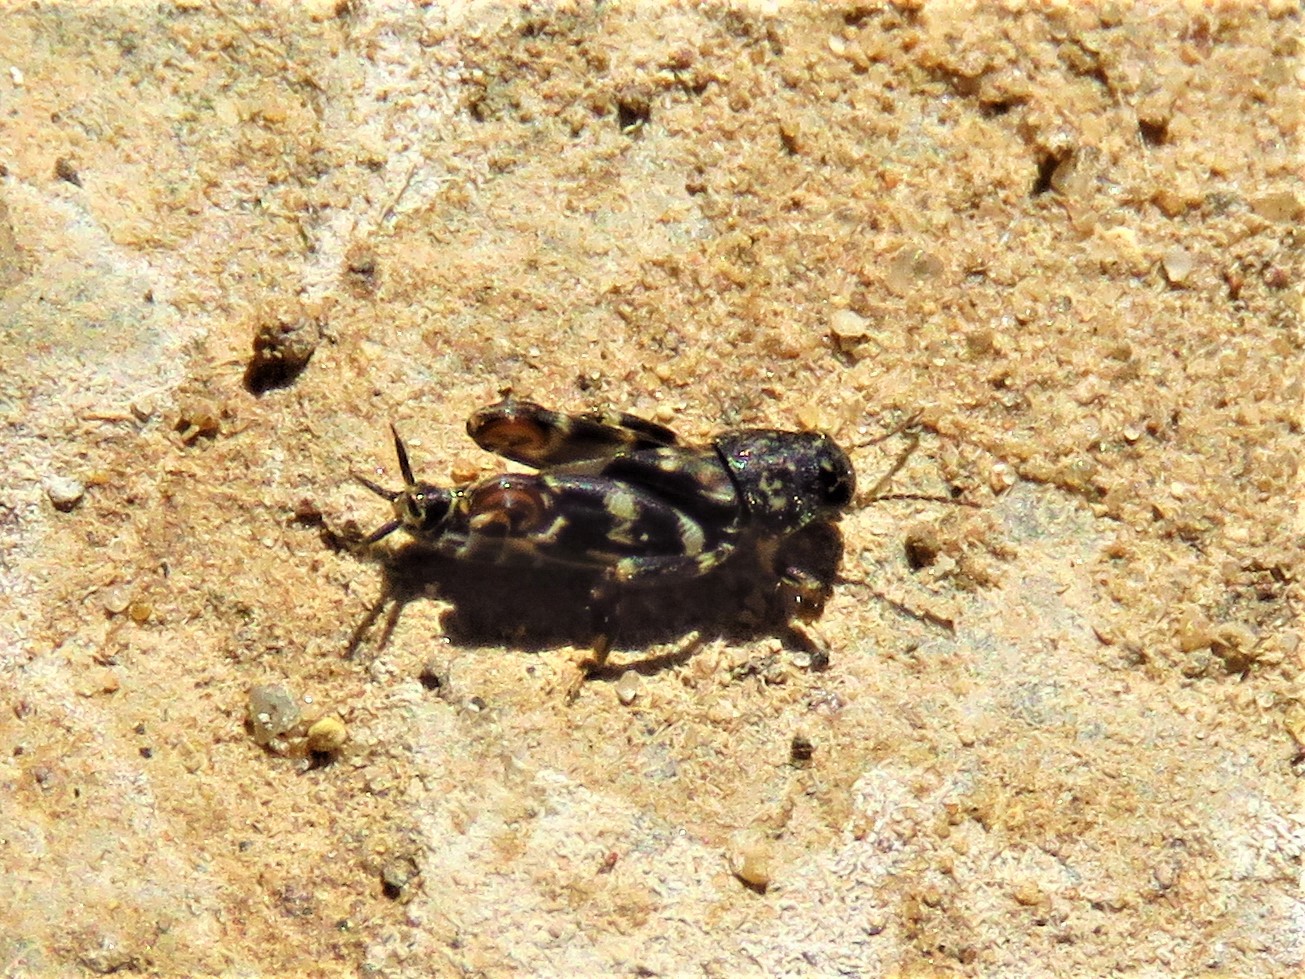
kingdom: Animalia
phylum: Arthropoda
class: Insecta
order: Orthoptera
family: Tridactylidae
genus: Ellipes
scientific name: Ellipes minuta
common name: Minute pygmy locust
